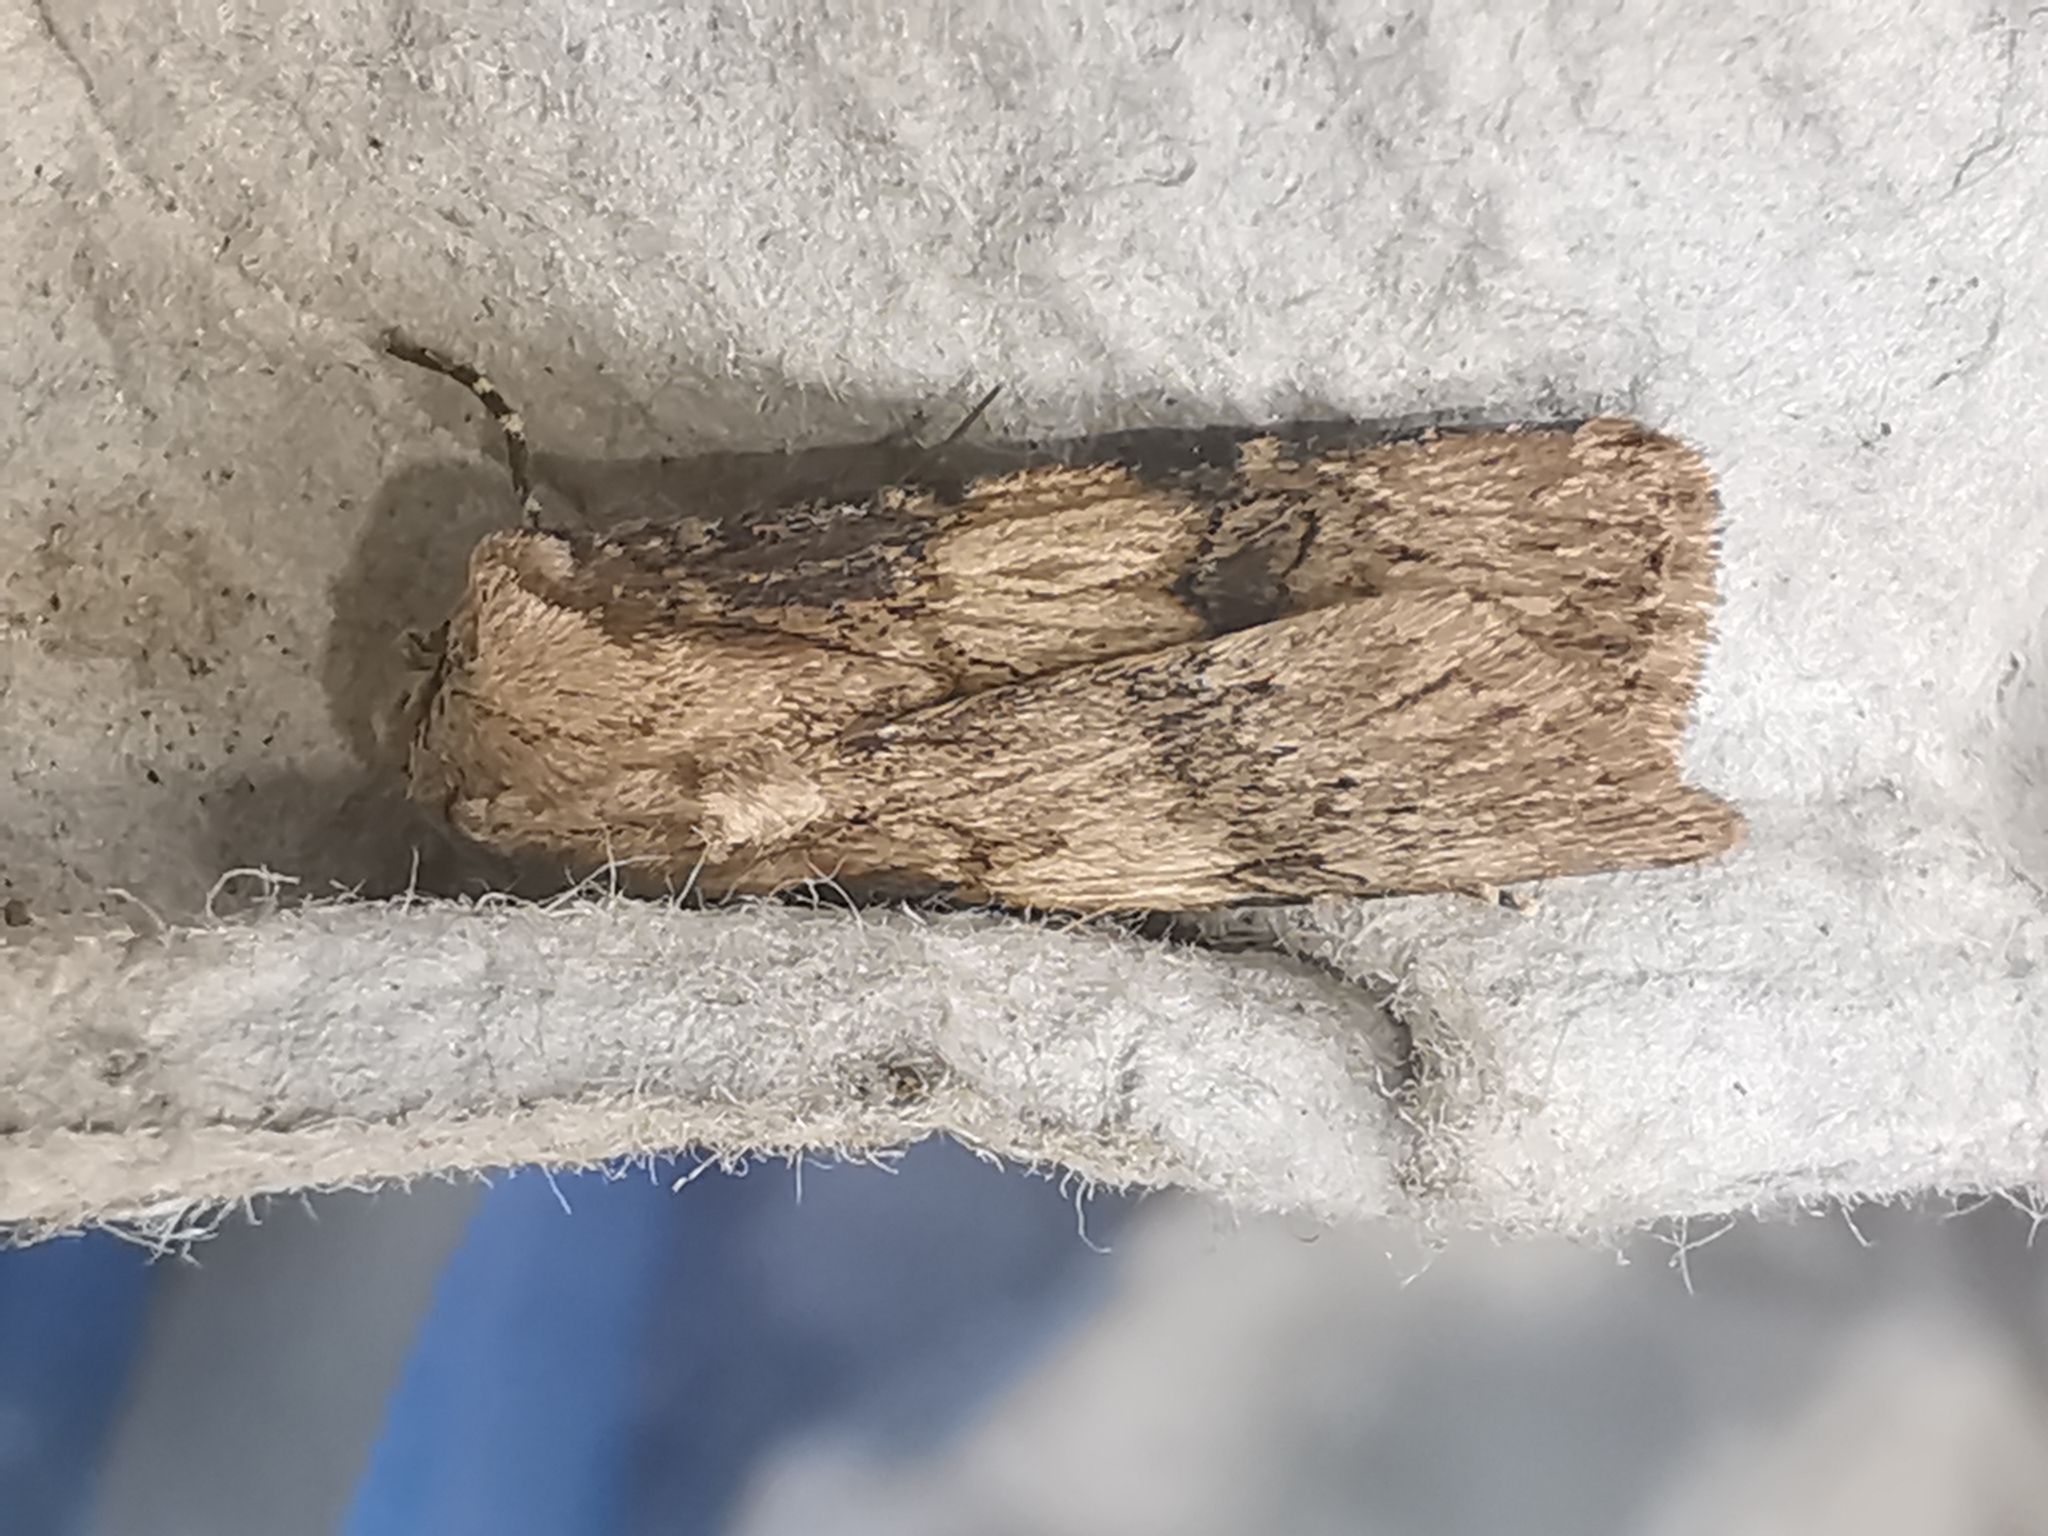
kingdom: Animalia
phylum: Arthropoda
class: Insecta
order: Lepidoptera
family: Noctuidae
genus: Agrotis
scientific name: Agrotis puta
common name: Shuttle-shaped dart
